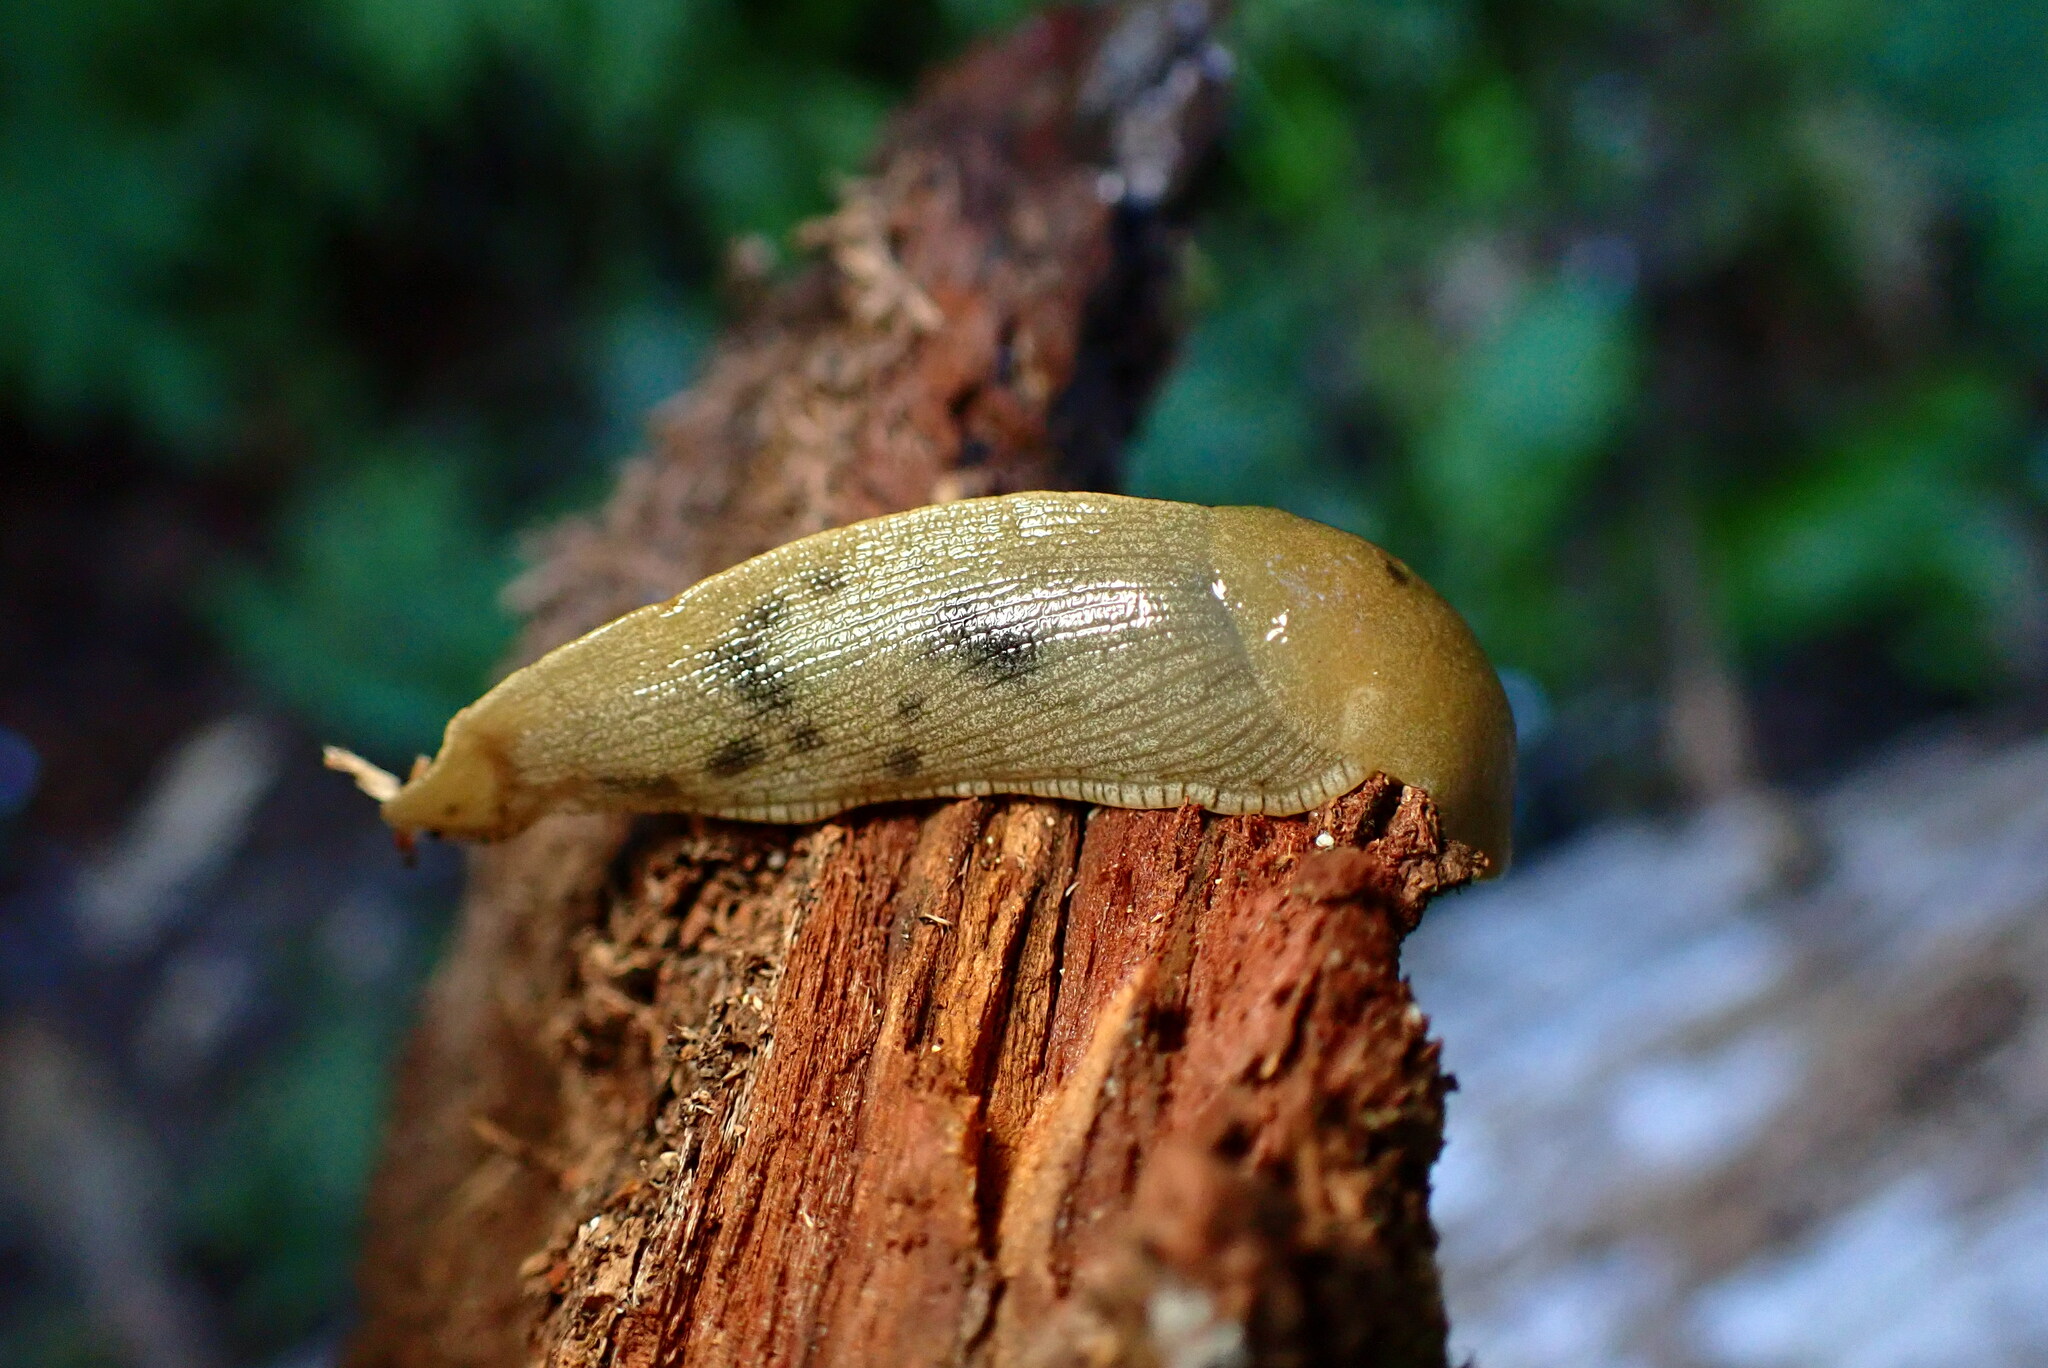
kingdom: Animalia
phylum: Mollusca
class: Gastropoda
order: Stylommatophora
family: Ariolimacidae
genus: Ariolimax
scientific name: Ariolimax buttoni
